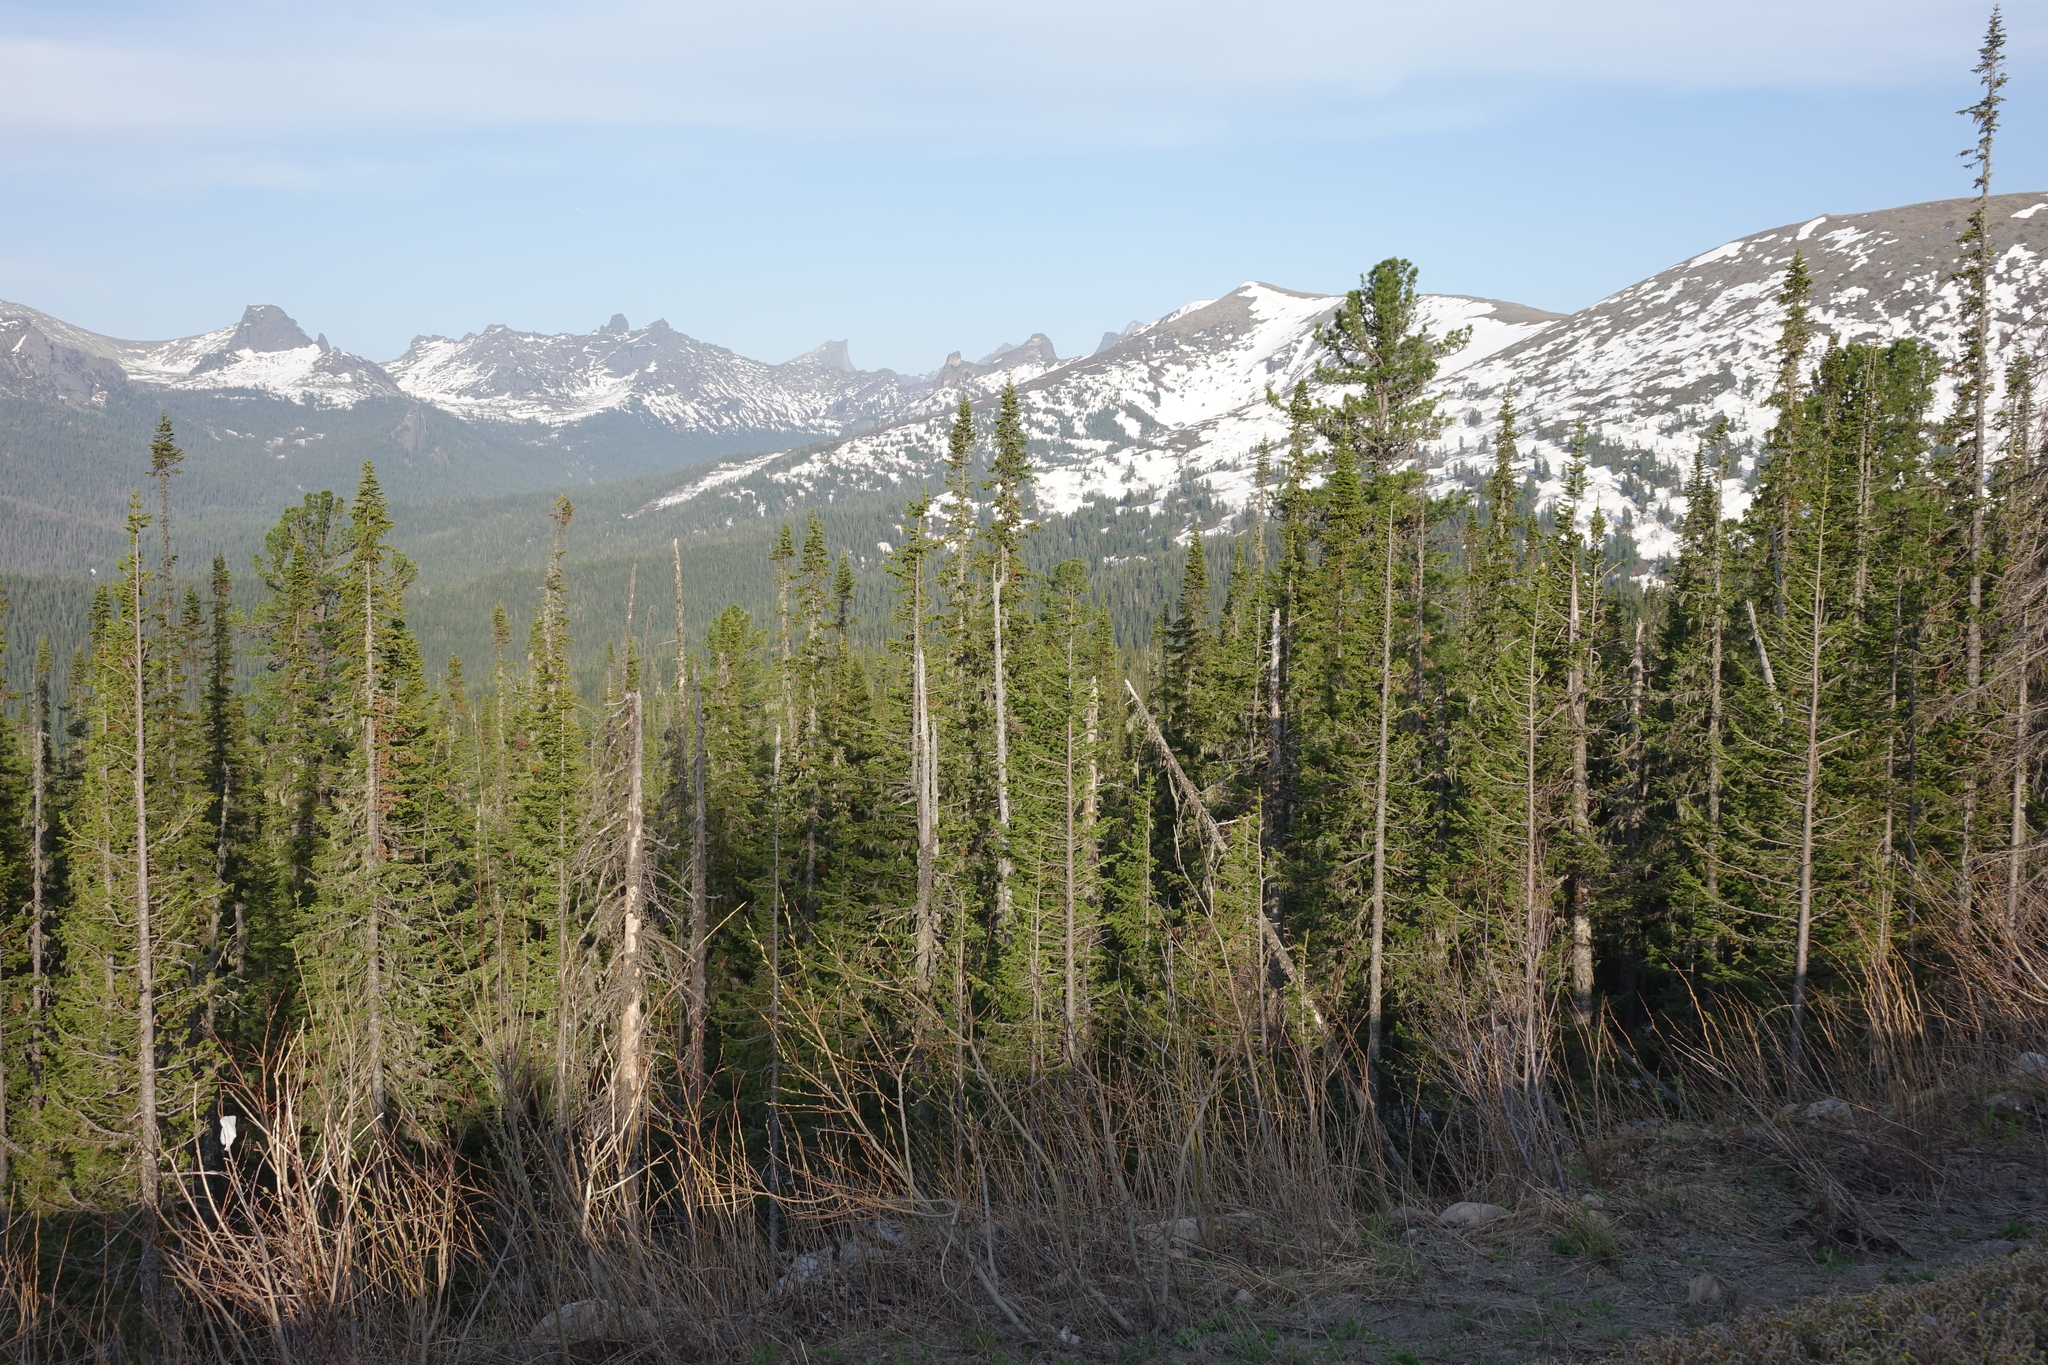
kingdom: Plantae
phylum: Tracheophyta
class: Pinopsida
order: Pinales
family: Pinaceae
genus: Abies
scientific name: Abies sibirica
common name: Siberian fir
